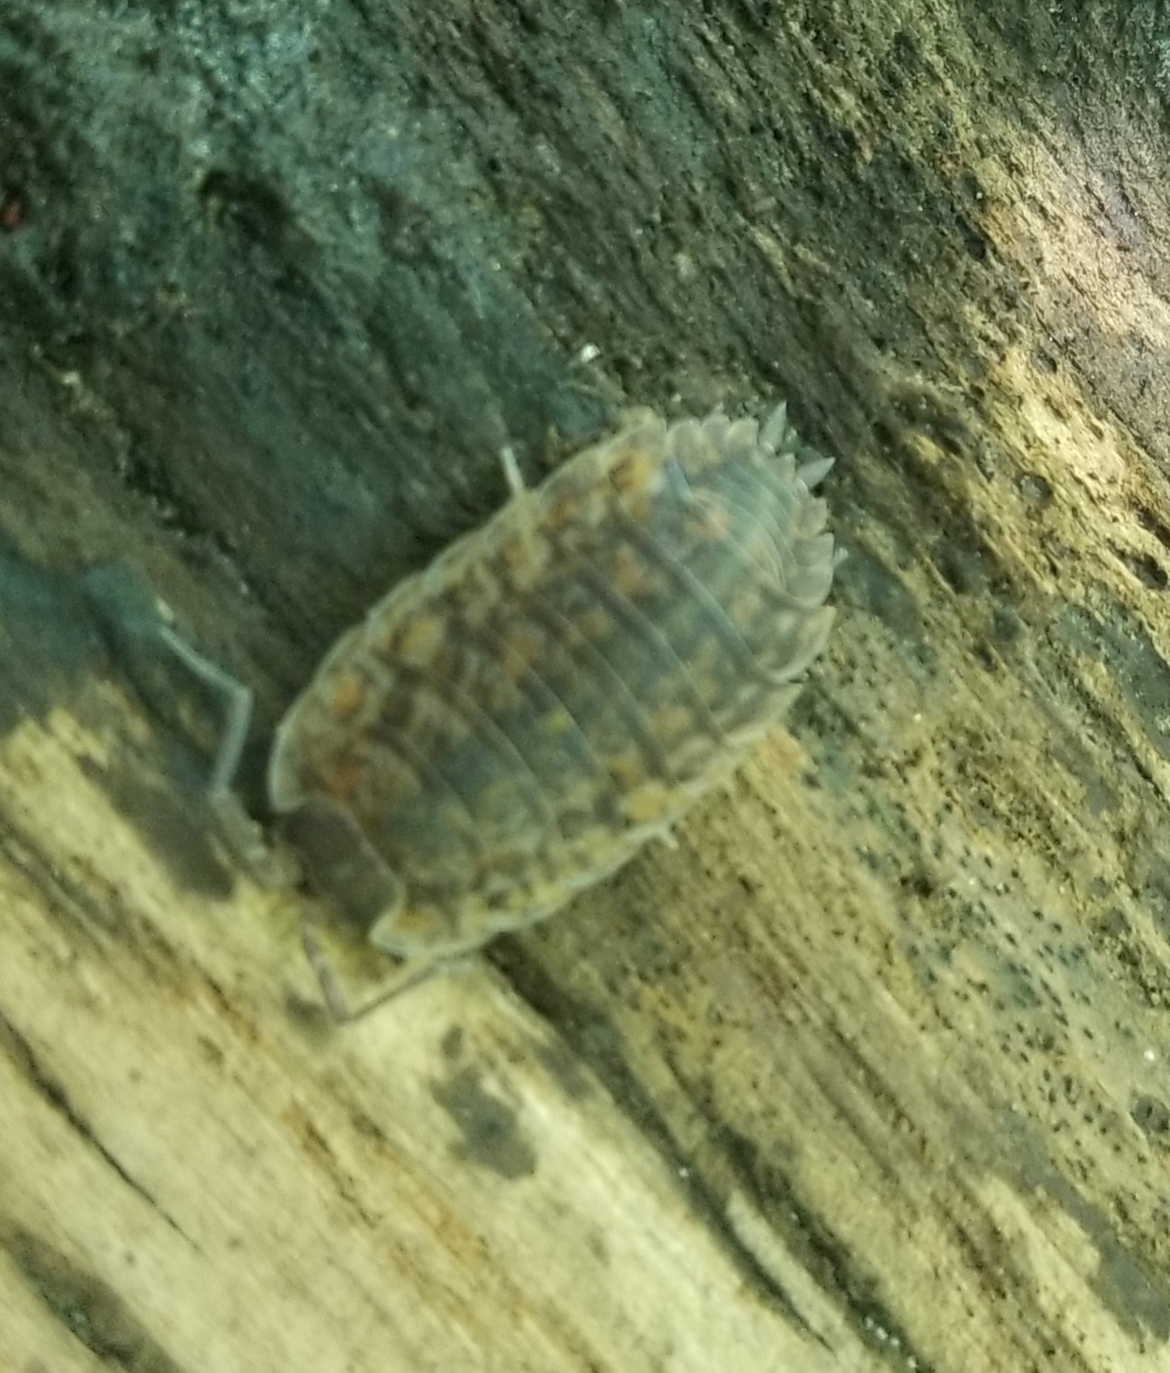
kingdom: Animalia
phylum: Arthropoda
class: Malacostraca
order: Isopoda
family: Trachelipodidae
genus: Trachelipus
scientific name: Trachelipus rathkii
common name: Isopod
